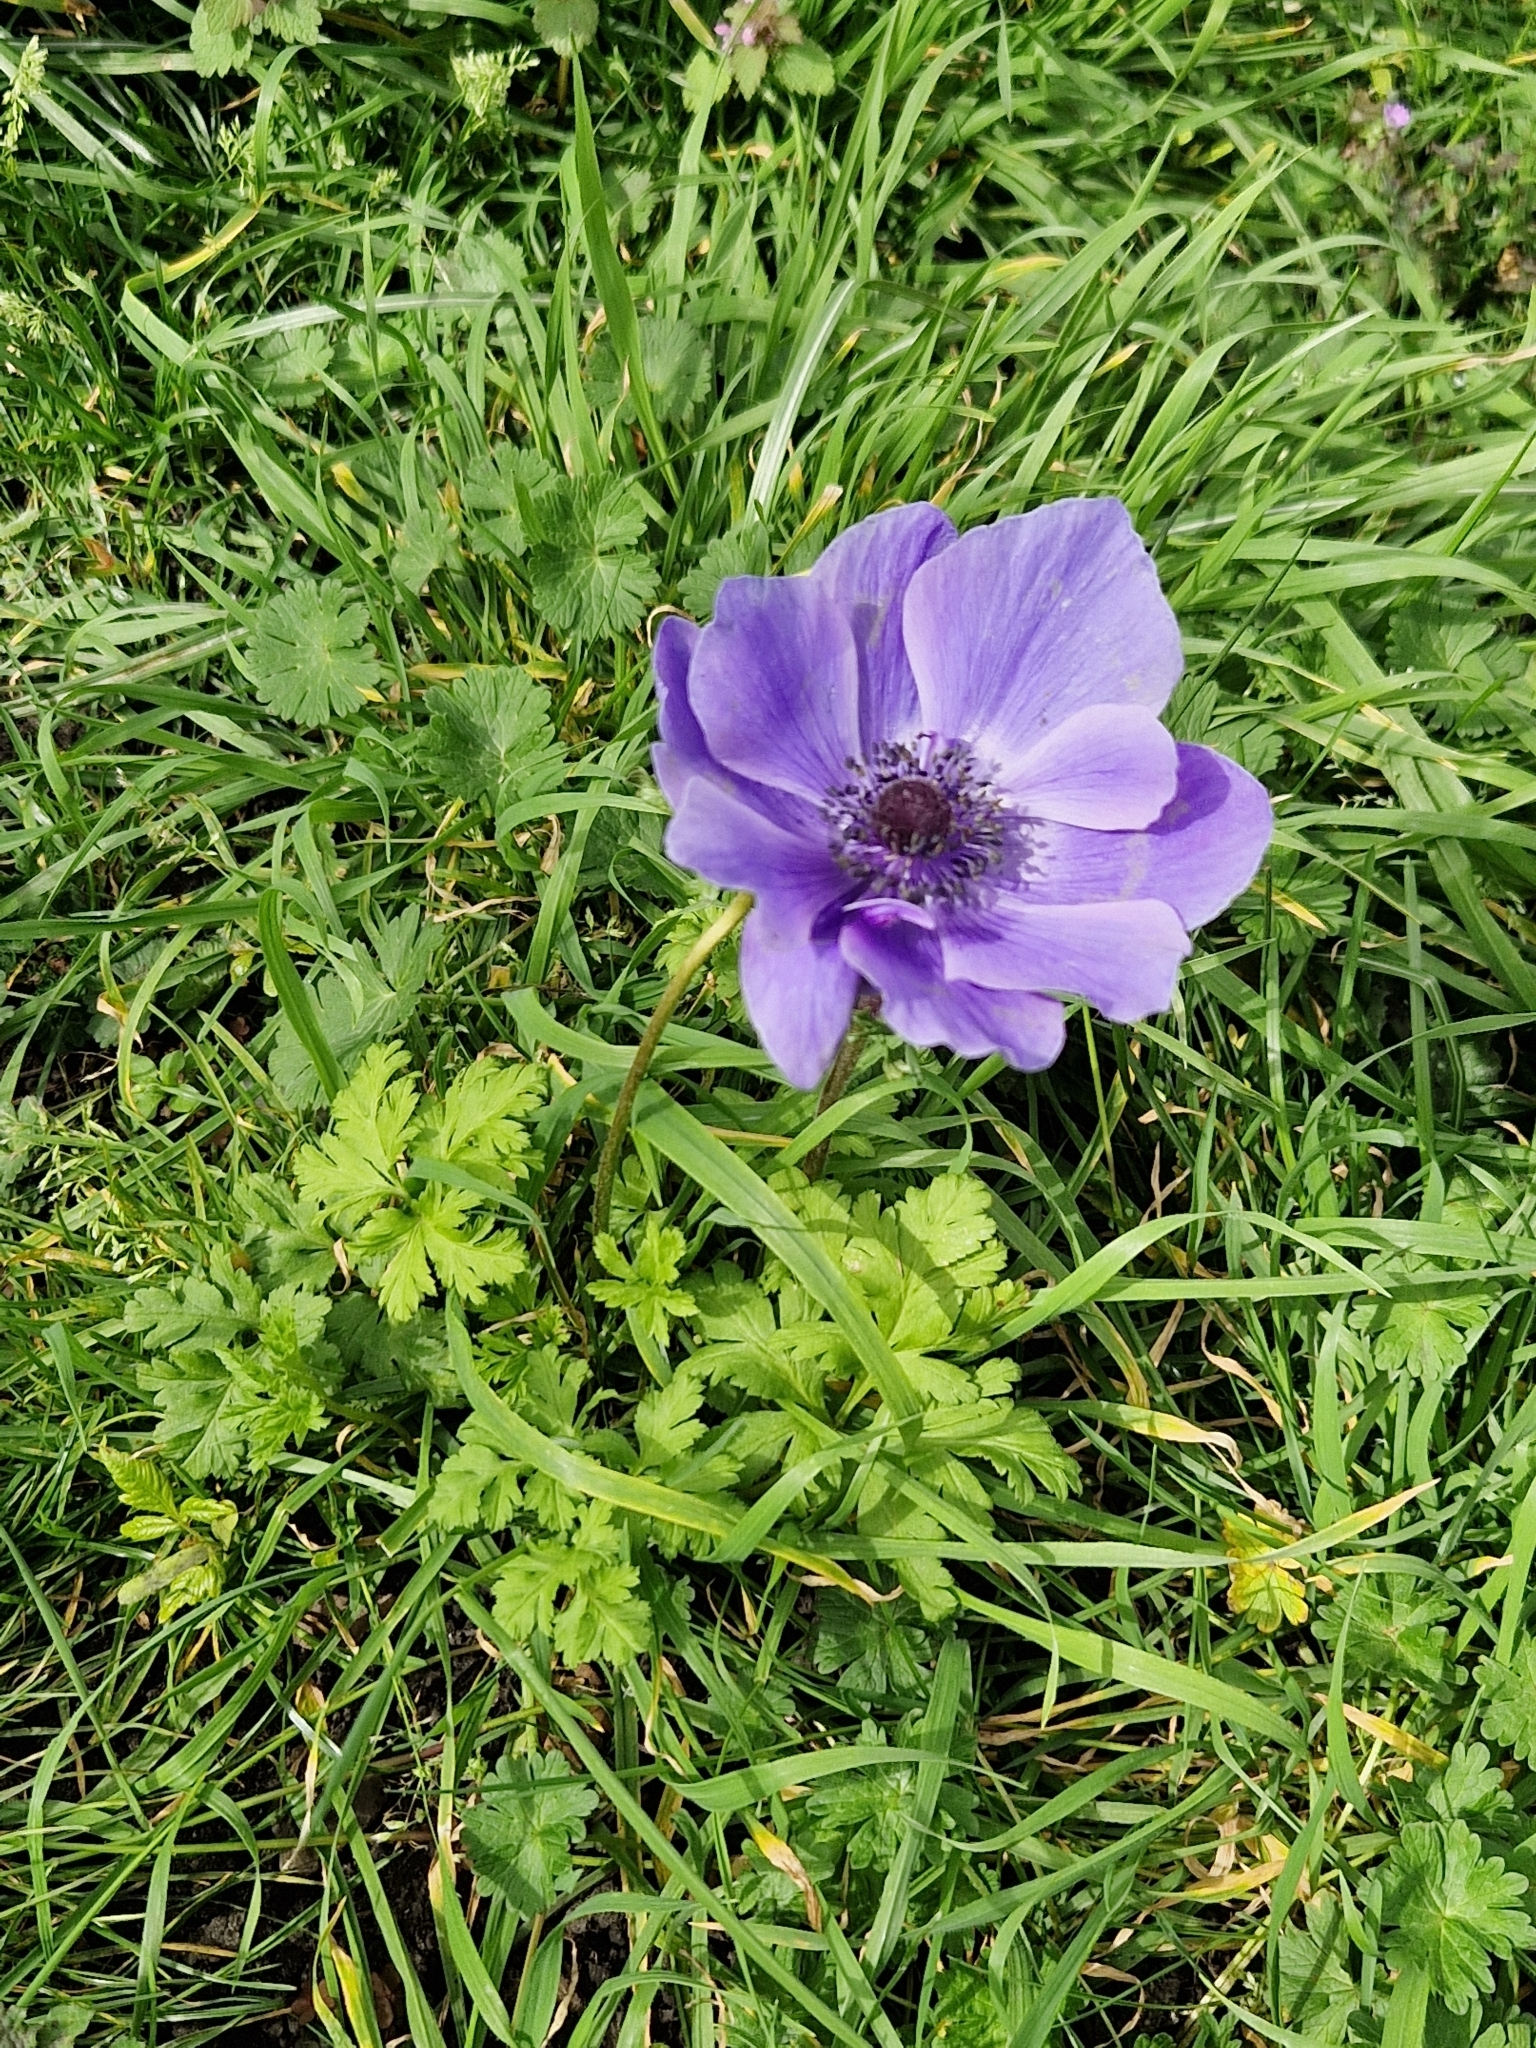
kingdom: Plantae
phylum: Tracheophyta
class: Magnoliopsida
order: Ranunculales
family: Ranunculaceae
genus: Anemone
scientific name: Anemone coronaria
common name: Poppy anemone
